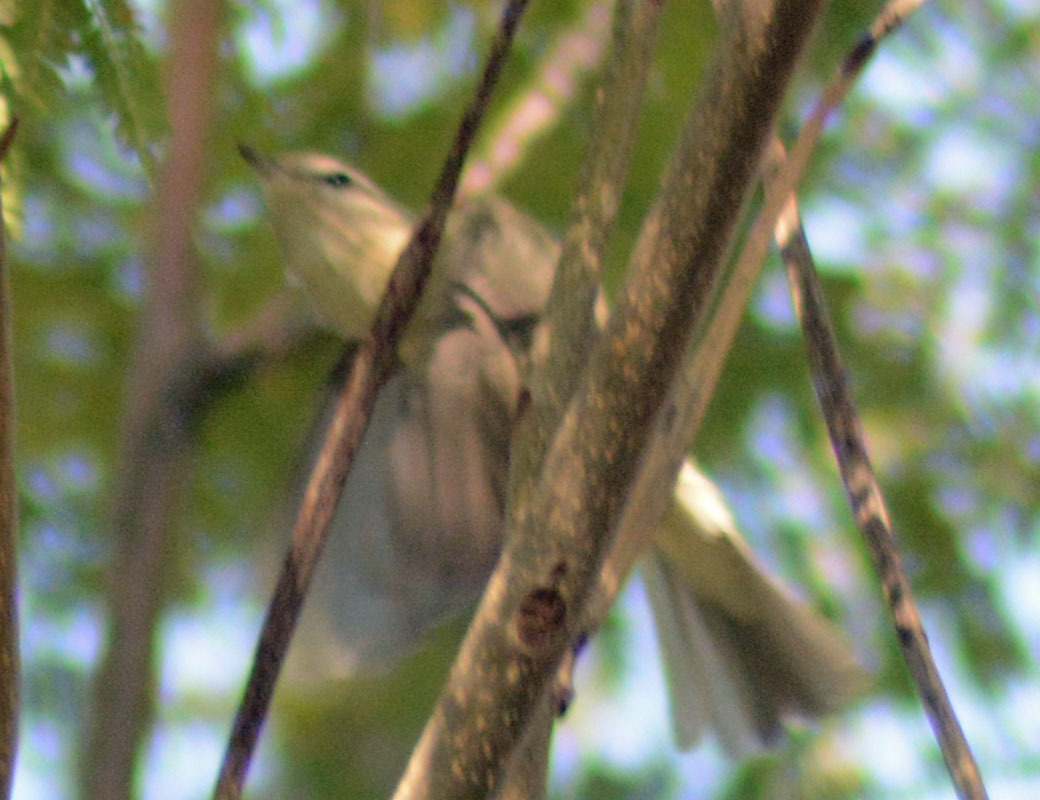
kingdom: Animalia
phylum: Chordata
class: Aves
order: Passeriformes
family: Vireonidae
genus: Vireo
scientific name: Vireo gilvus
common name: Warbling vireo
